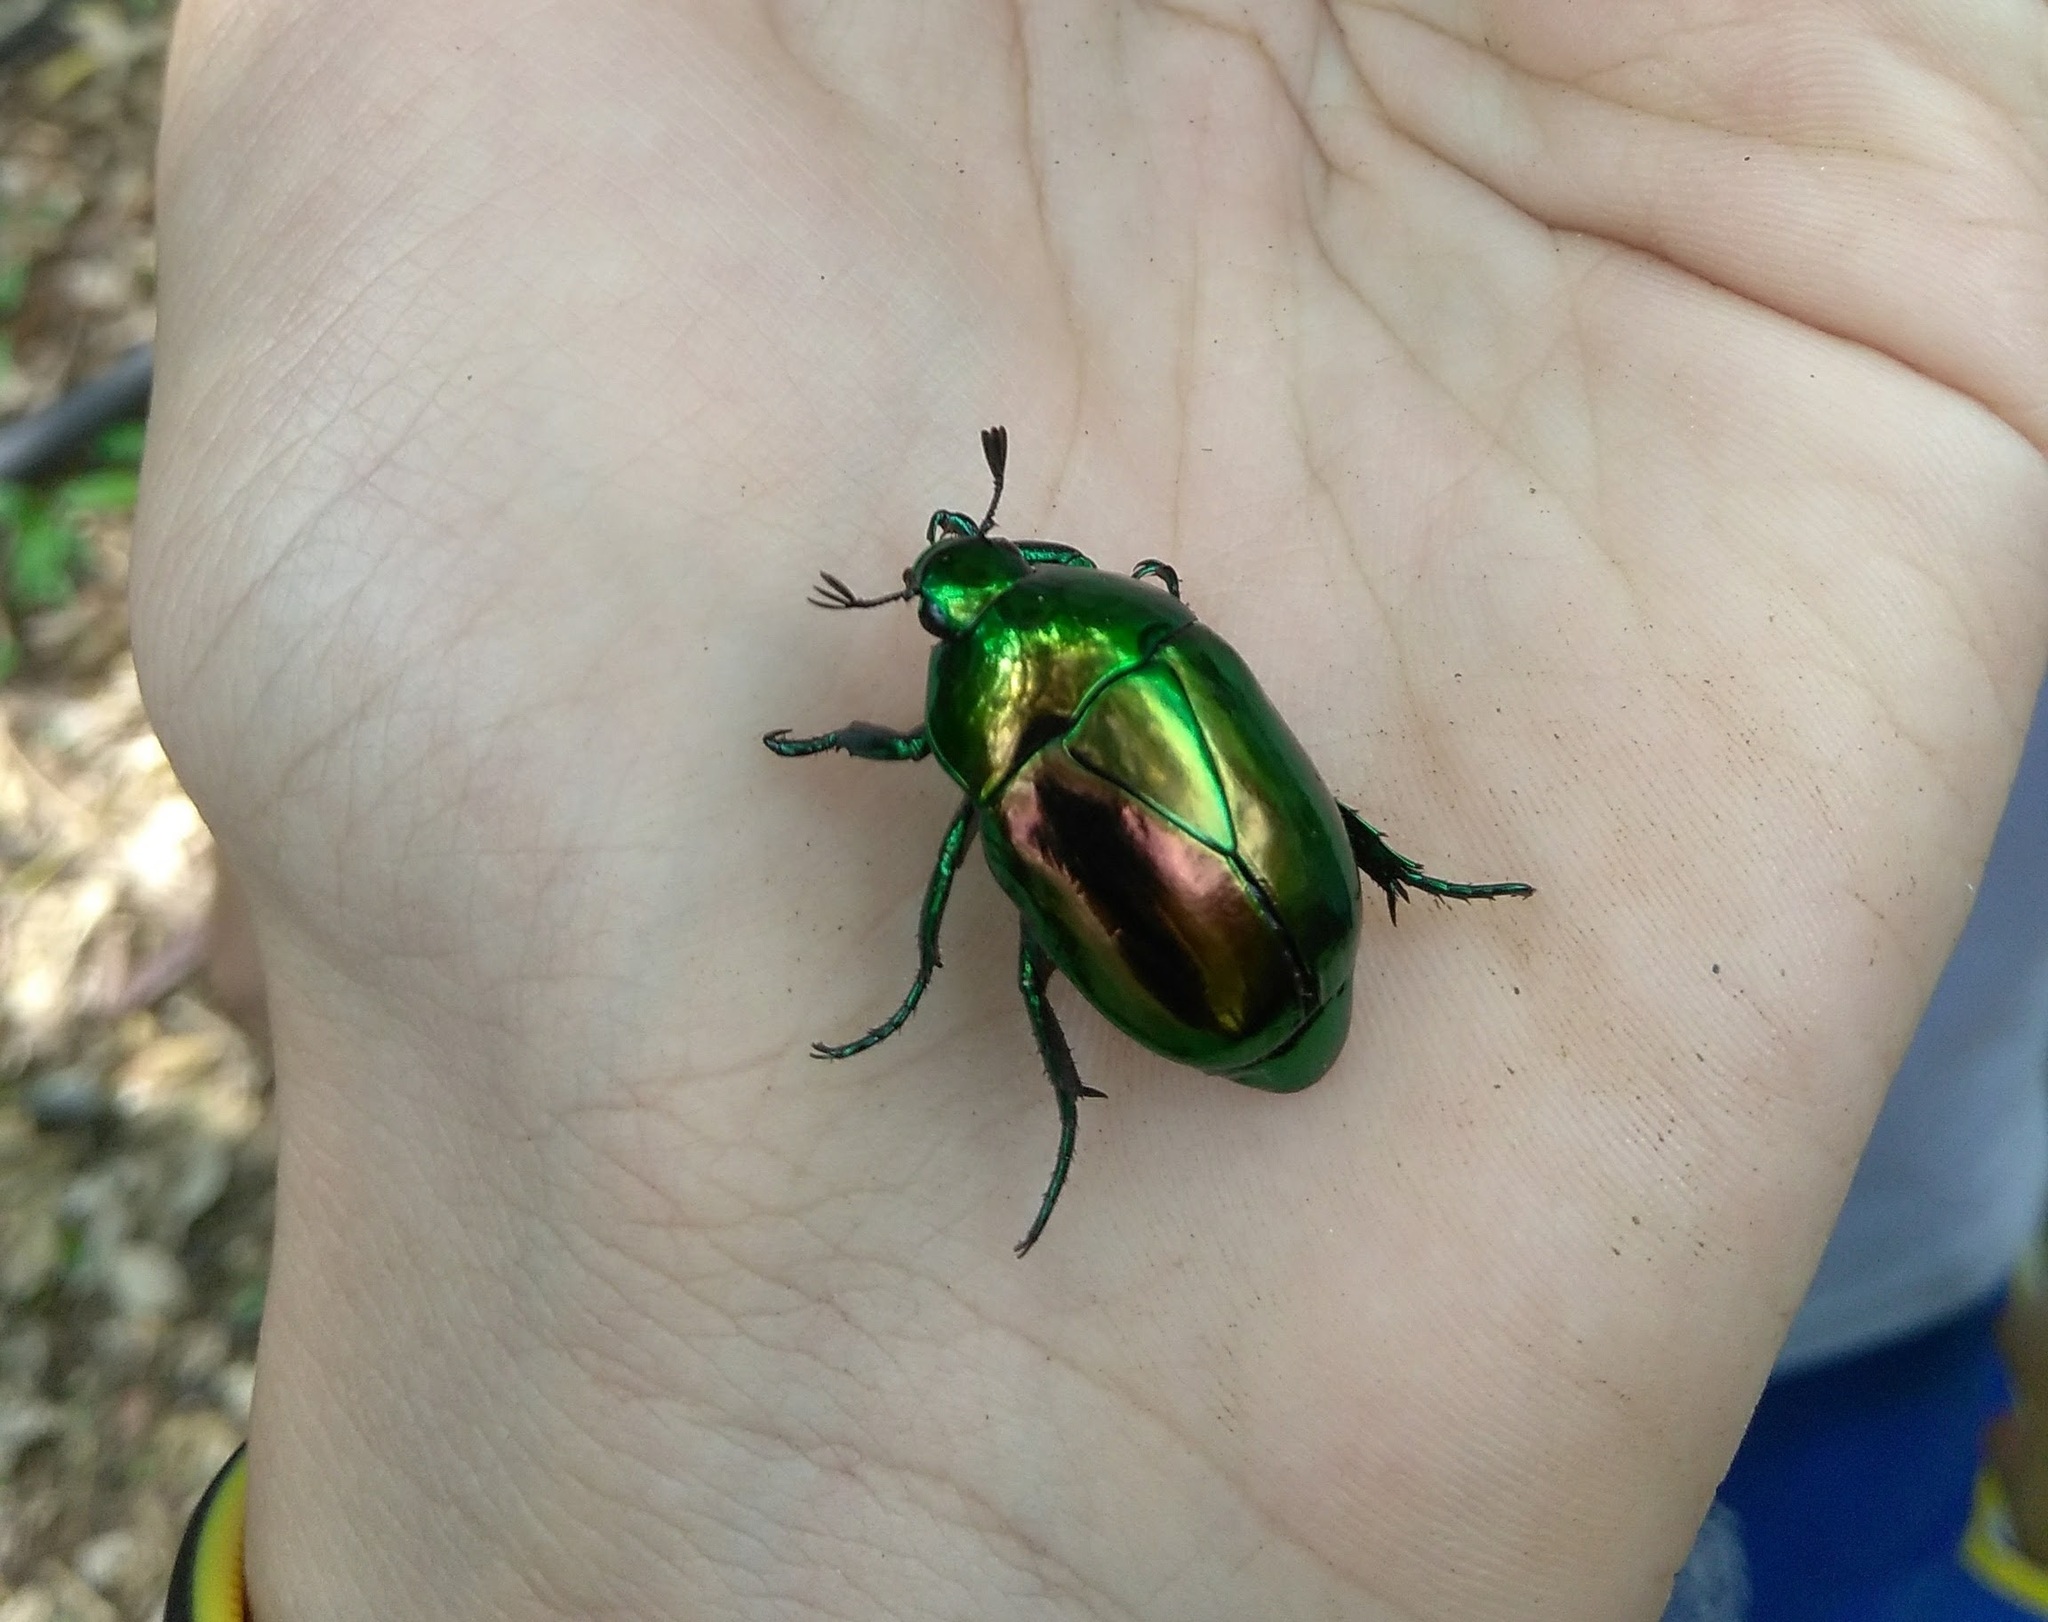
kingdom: Animalia
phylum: Arthropoda
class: Insecta
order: Coleoptera
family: Scarabaeidae
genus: Macraspis
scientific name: Macraspis chrysis
